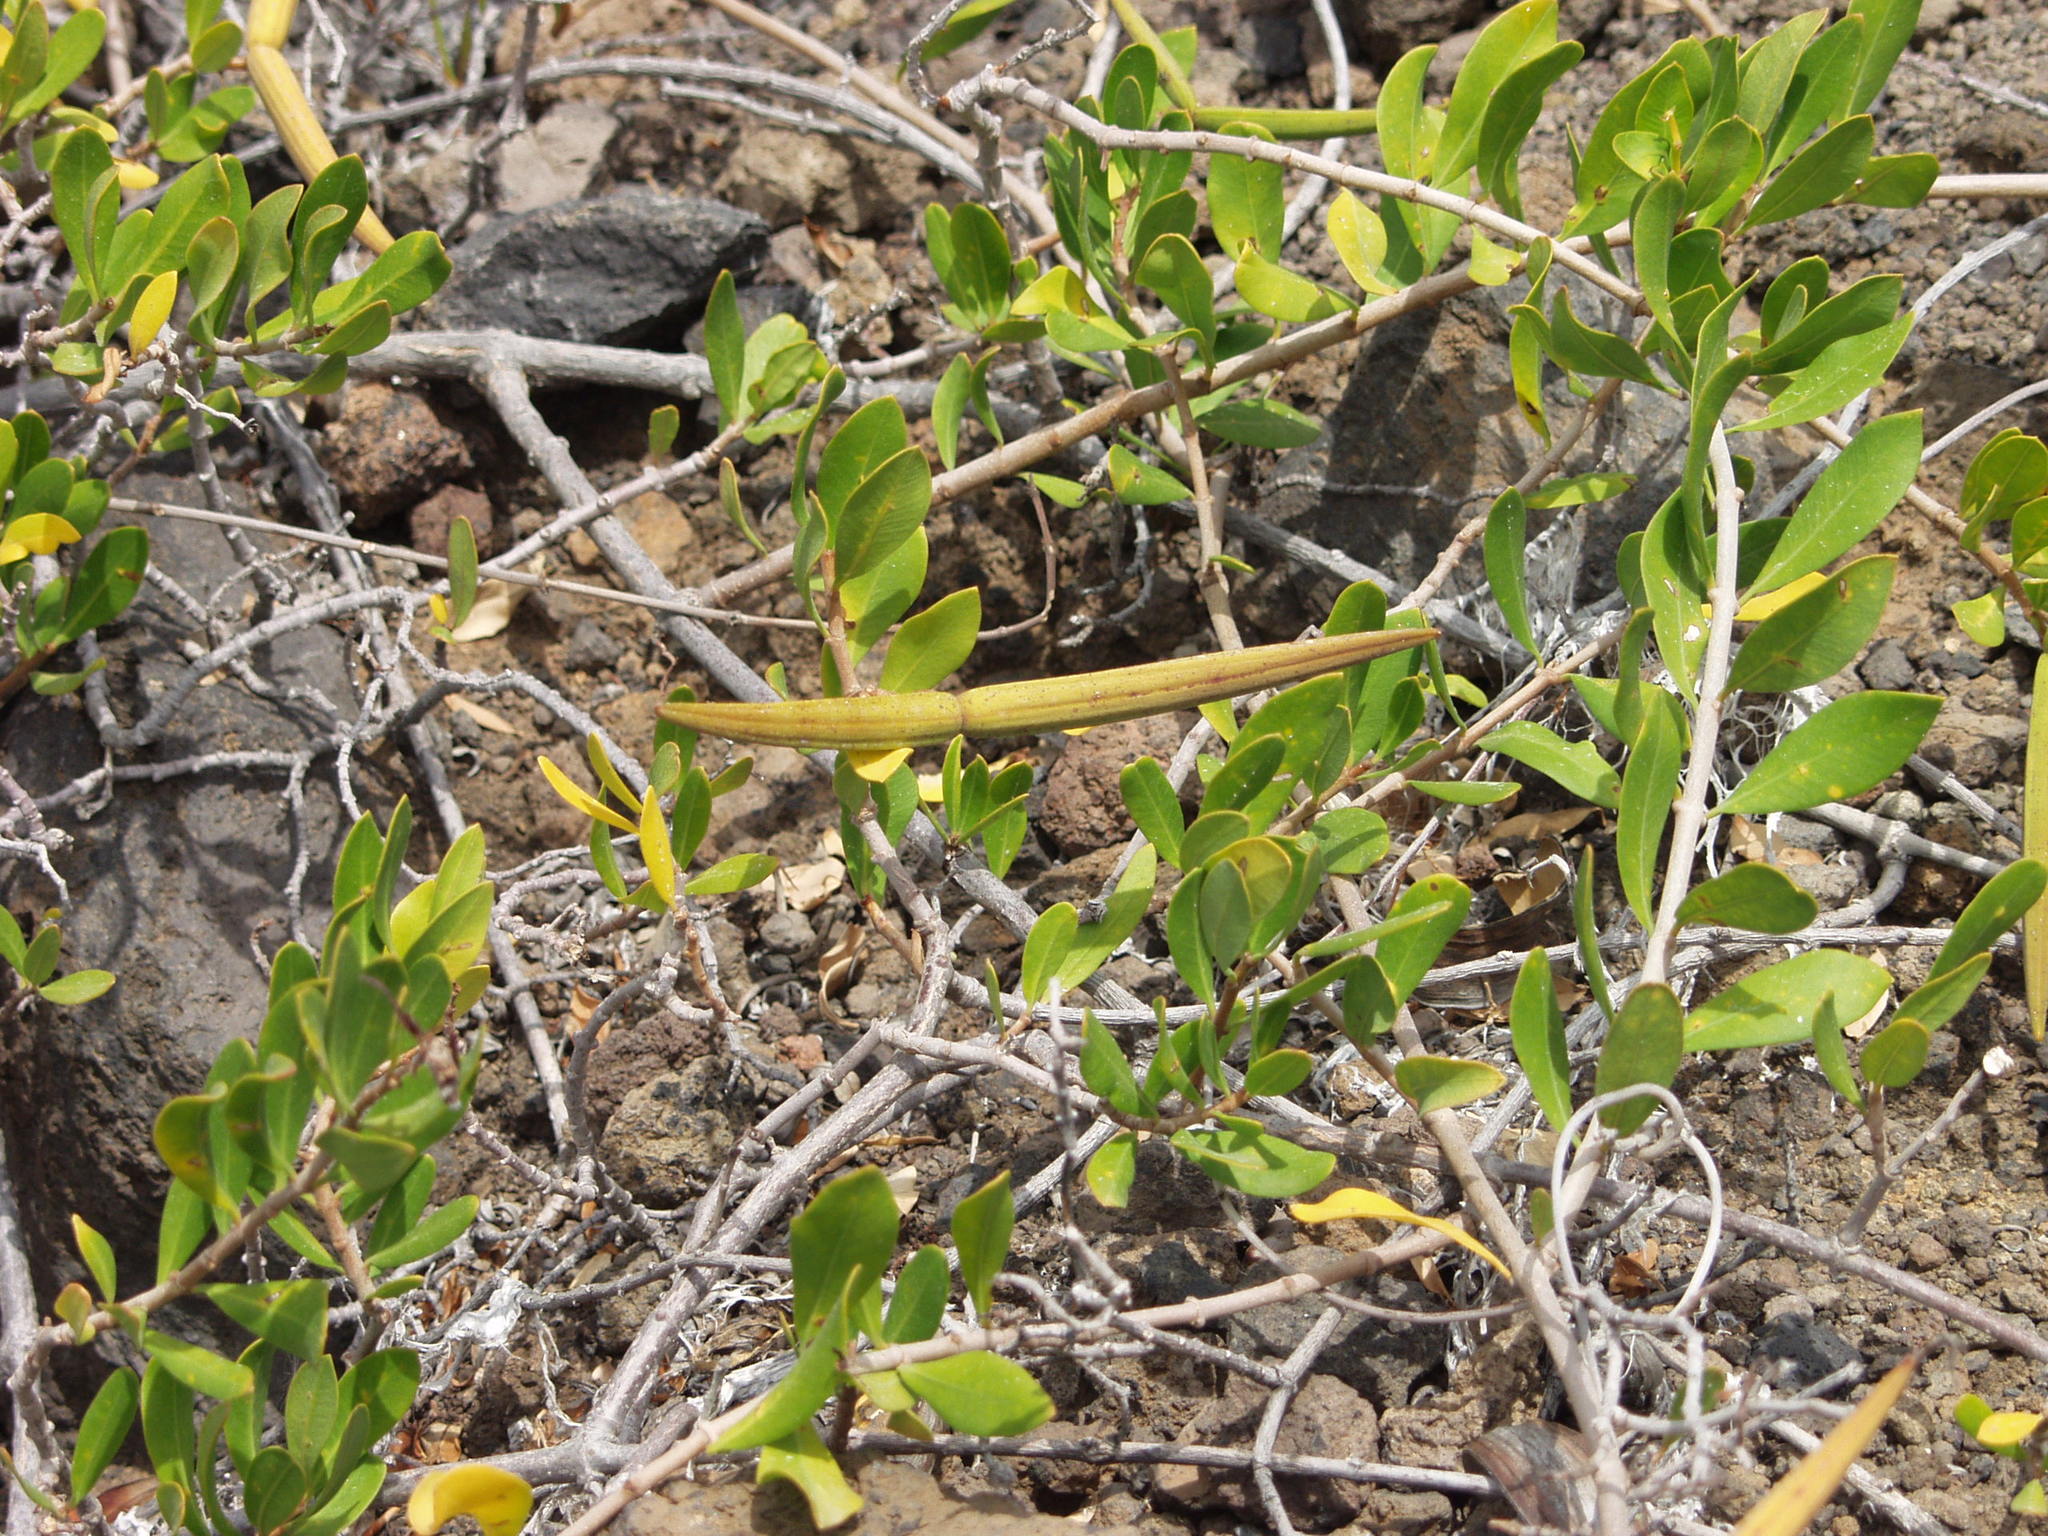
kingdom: Plantae
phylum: Tracheophyta
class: Magnoliopsida
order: Gentianales
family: Apocynaceae
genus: Periploca
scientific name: Periploca laevigata
